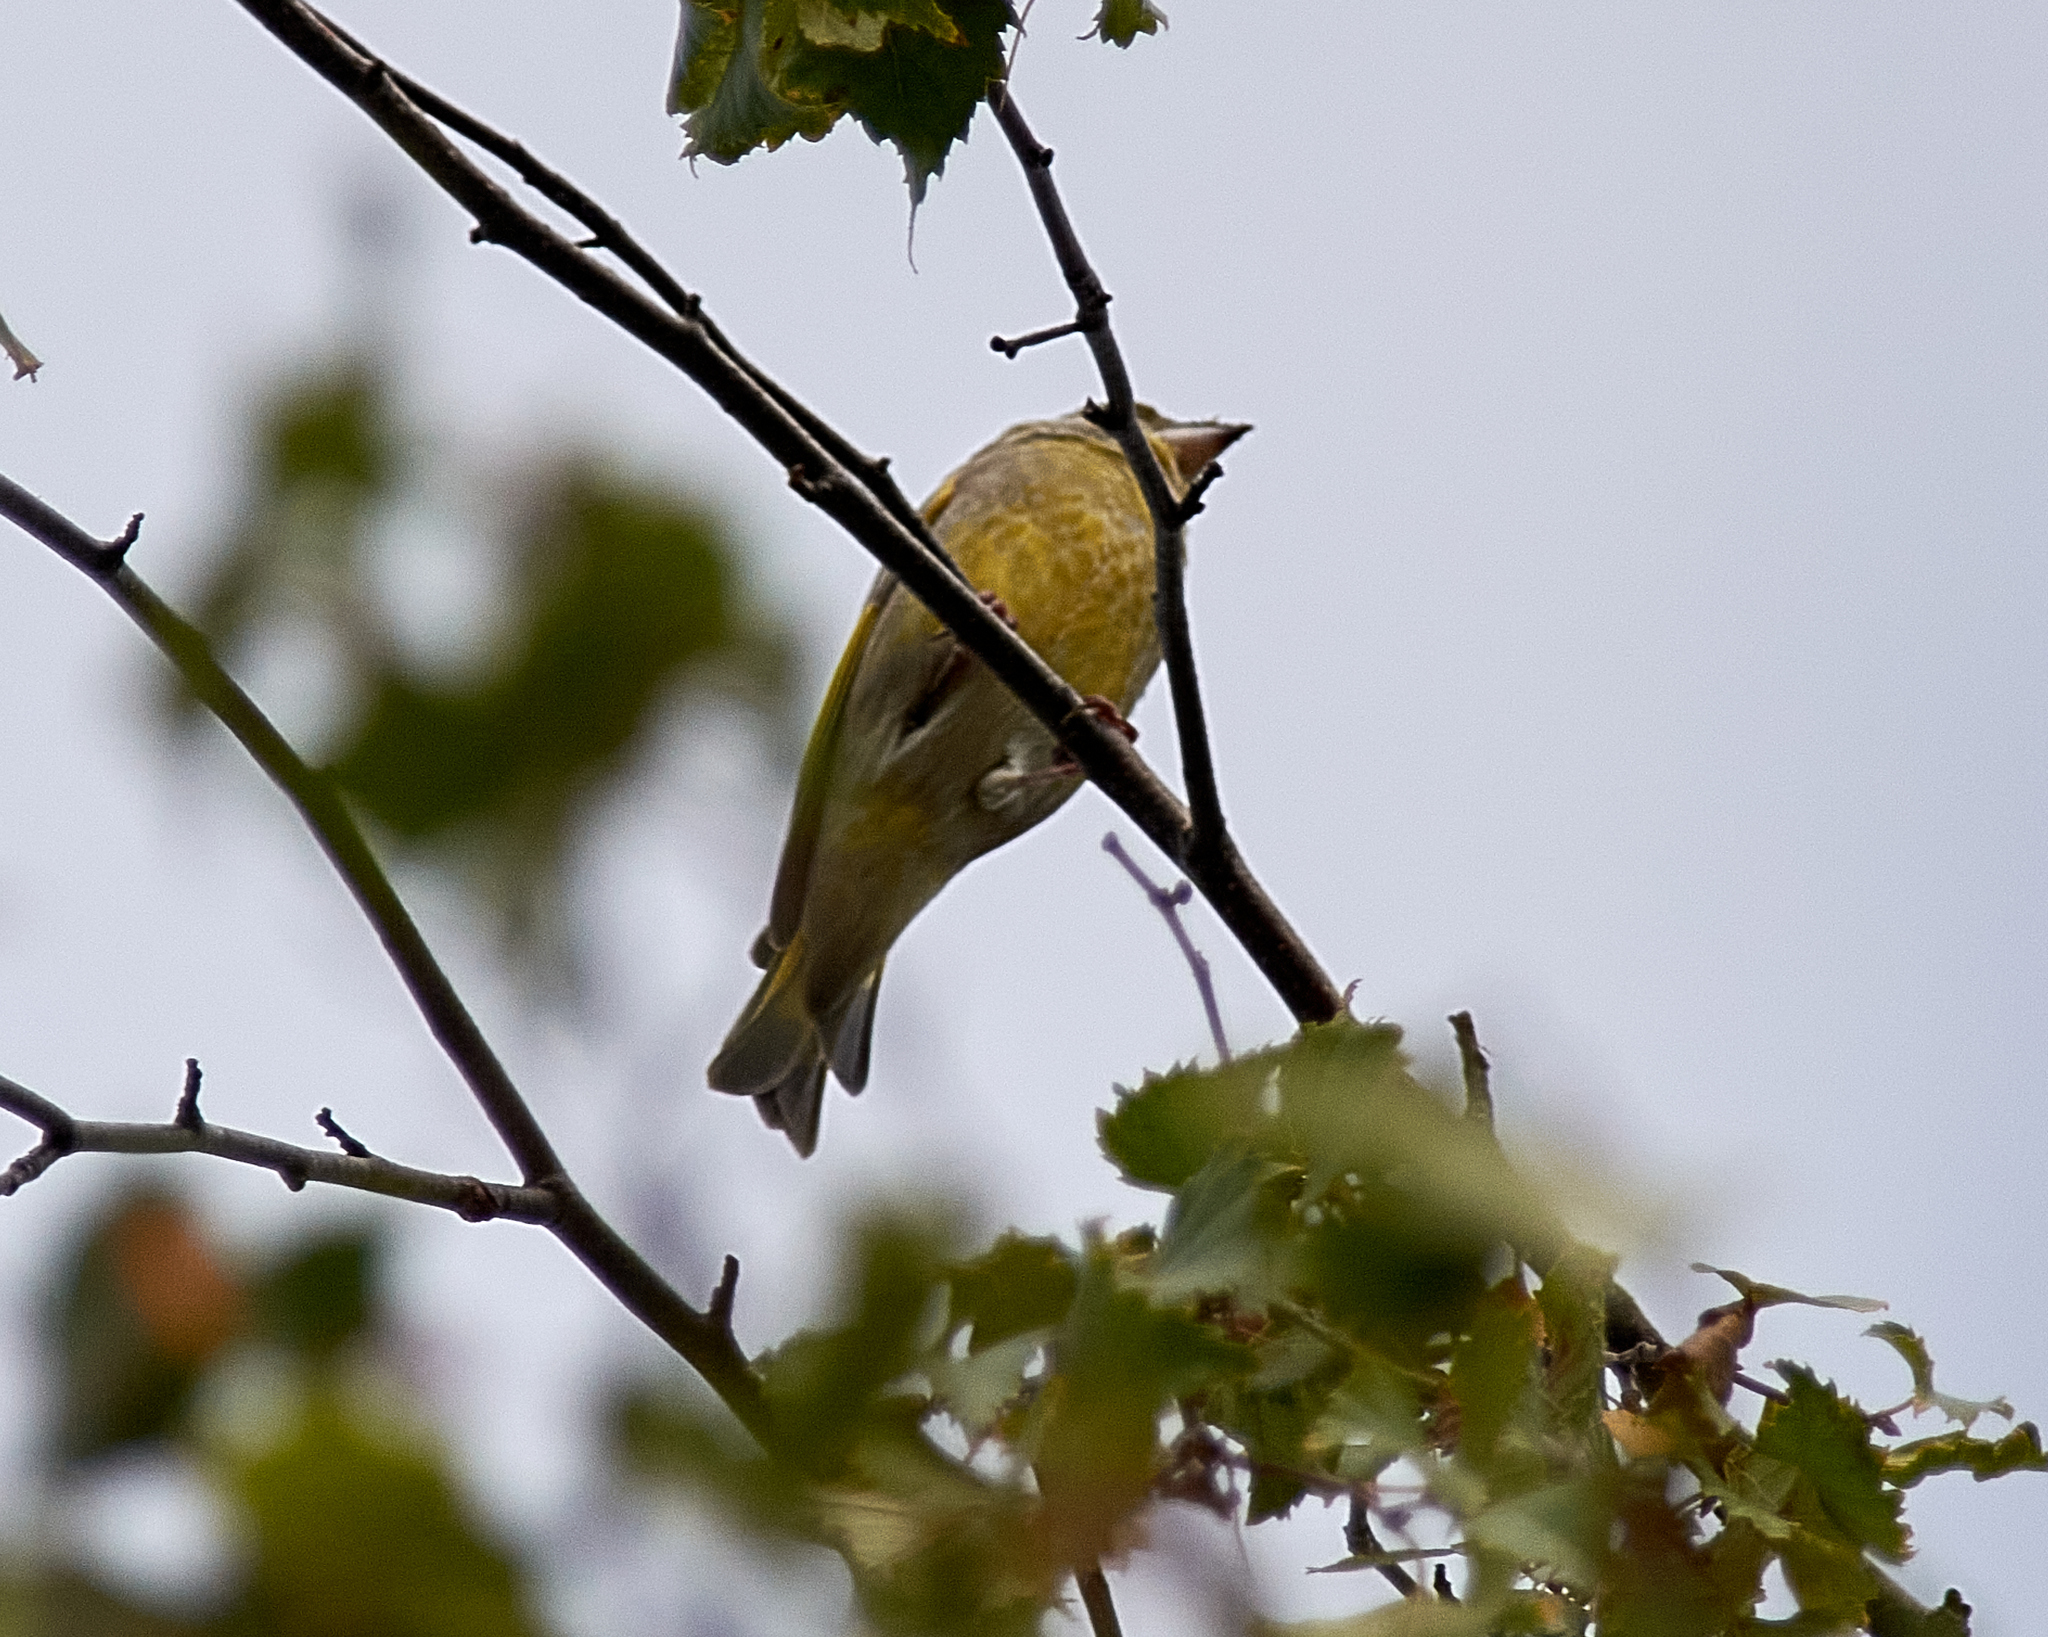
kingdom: Plantae
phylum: Tracheophyta
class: Liliopsida
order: Poales
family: Poaceae
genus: Chloris
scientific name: Chloris chloris
